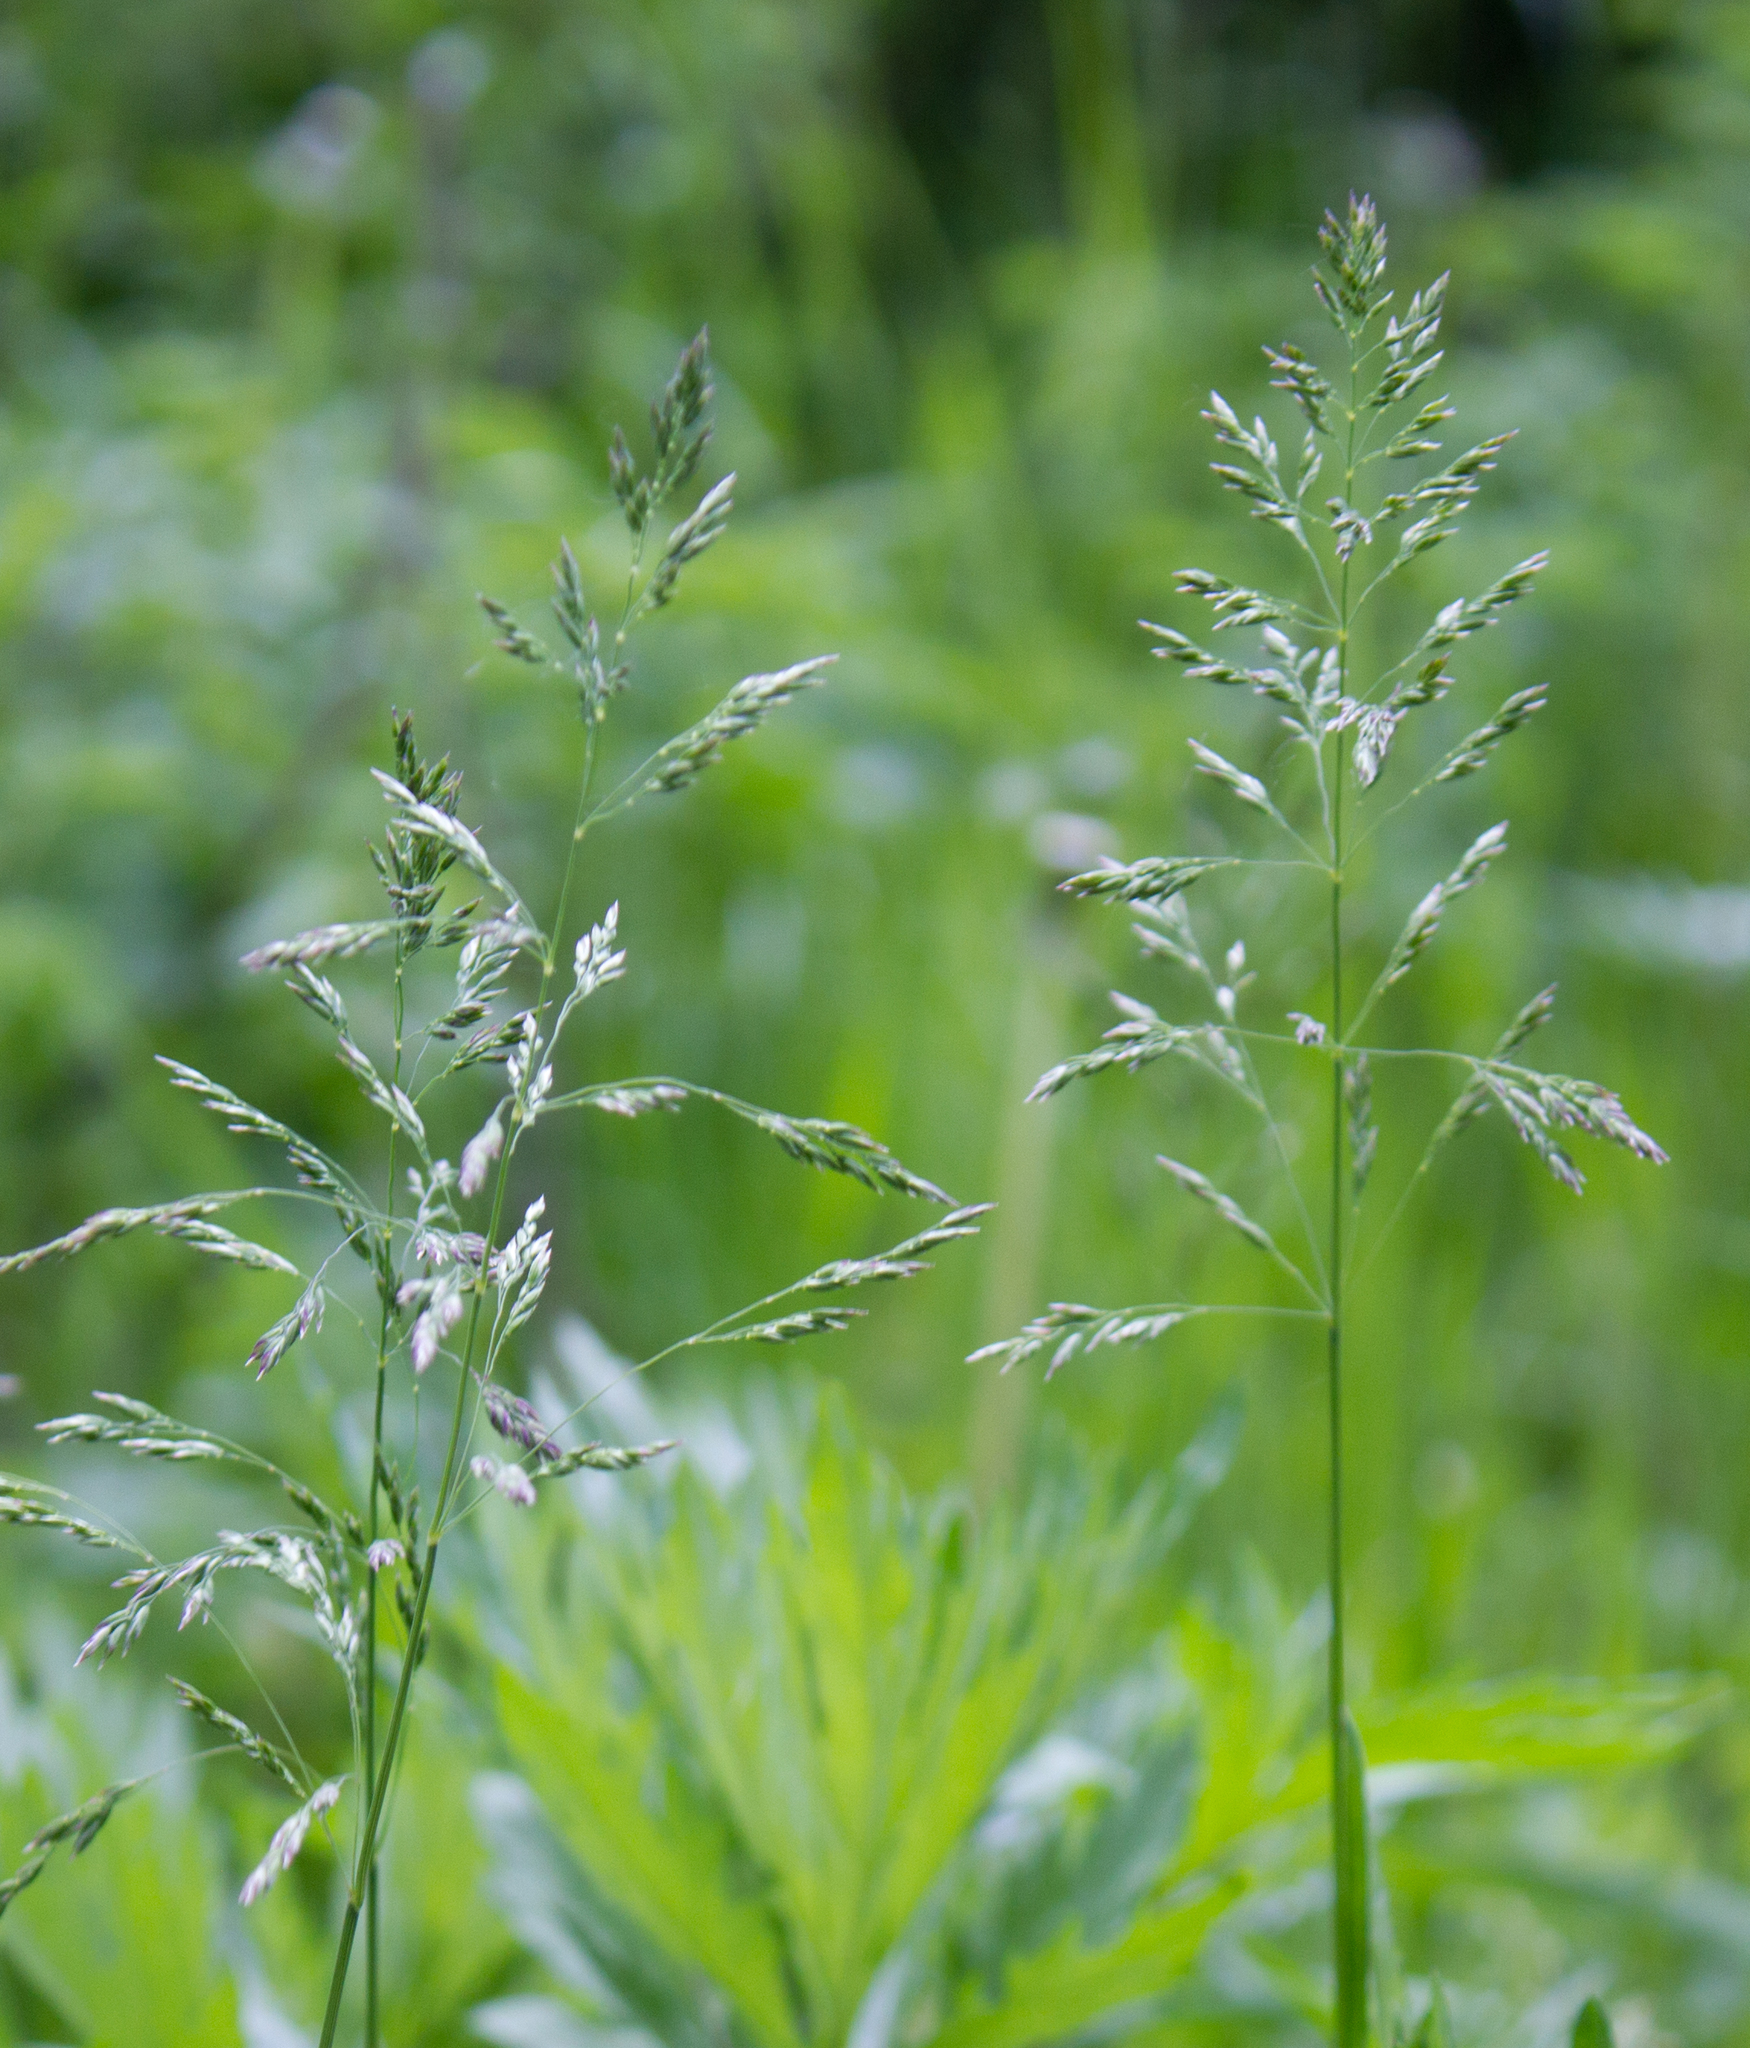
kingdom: Plantae
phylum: Tracheophyta
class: Liliopsida
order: Poales
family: Poaceae
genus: Poa
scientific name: Poa pratensis
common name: Kentucky bluegrass
